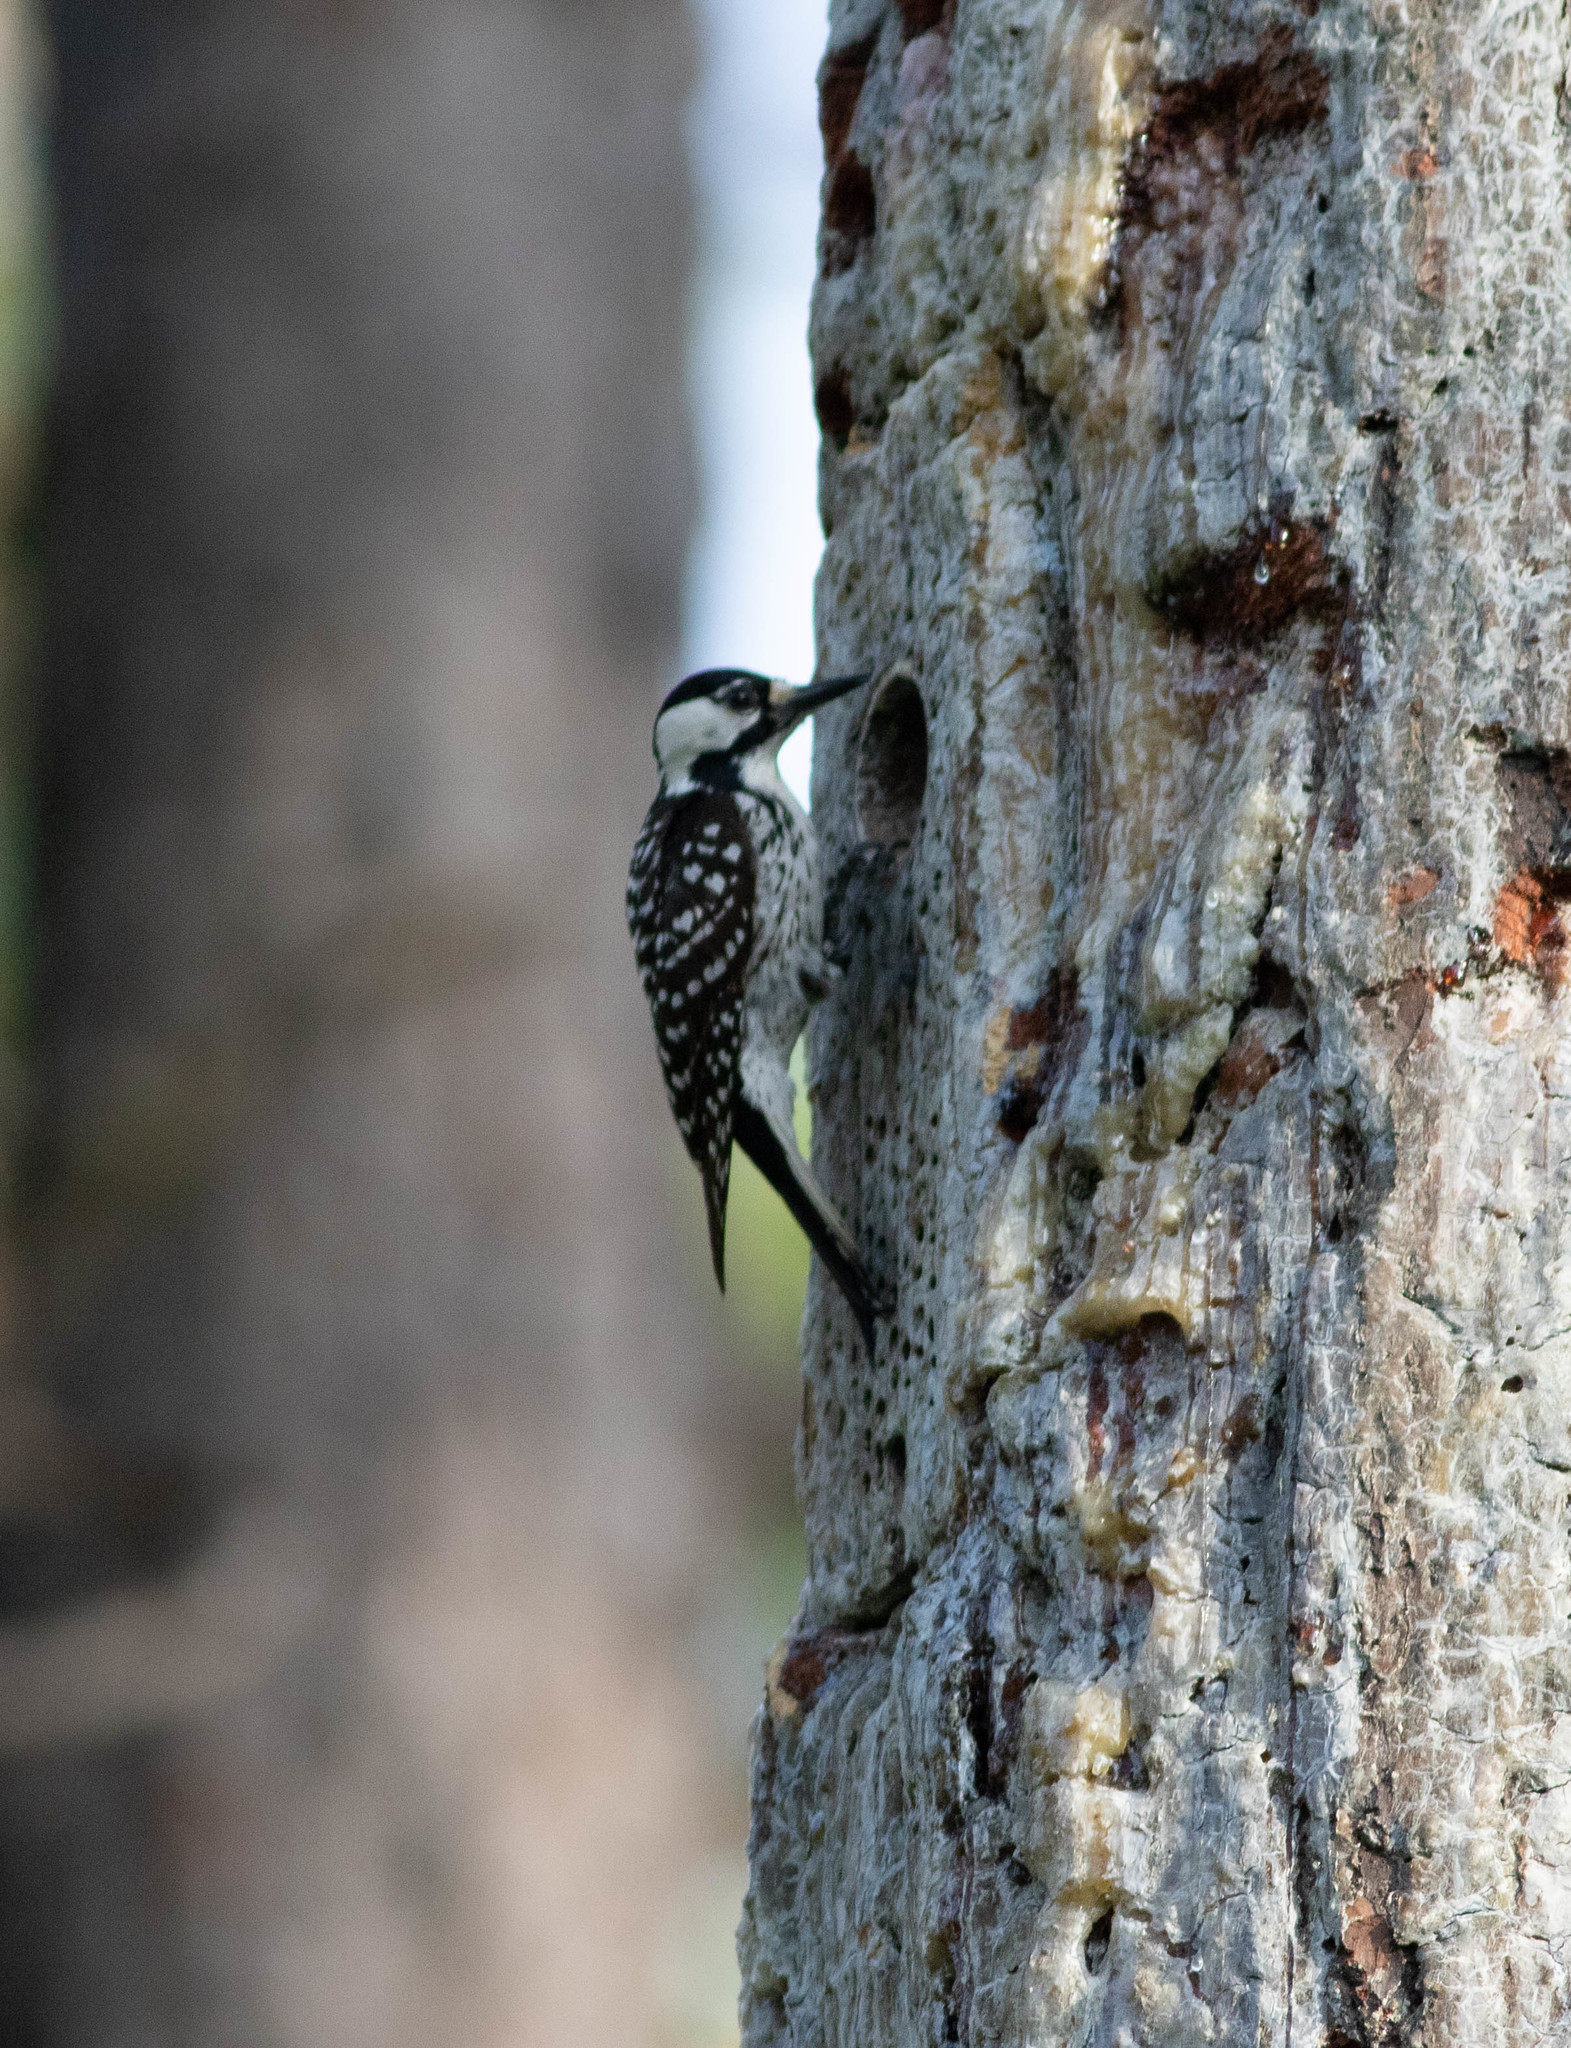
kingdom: Animalia
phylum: Chordata
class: Aves
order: Piciformes
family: Picidae
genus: Leuconotopicus
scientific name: Leuconotopicus borealis
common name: Red-cockaded woodpecker
